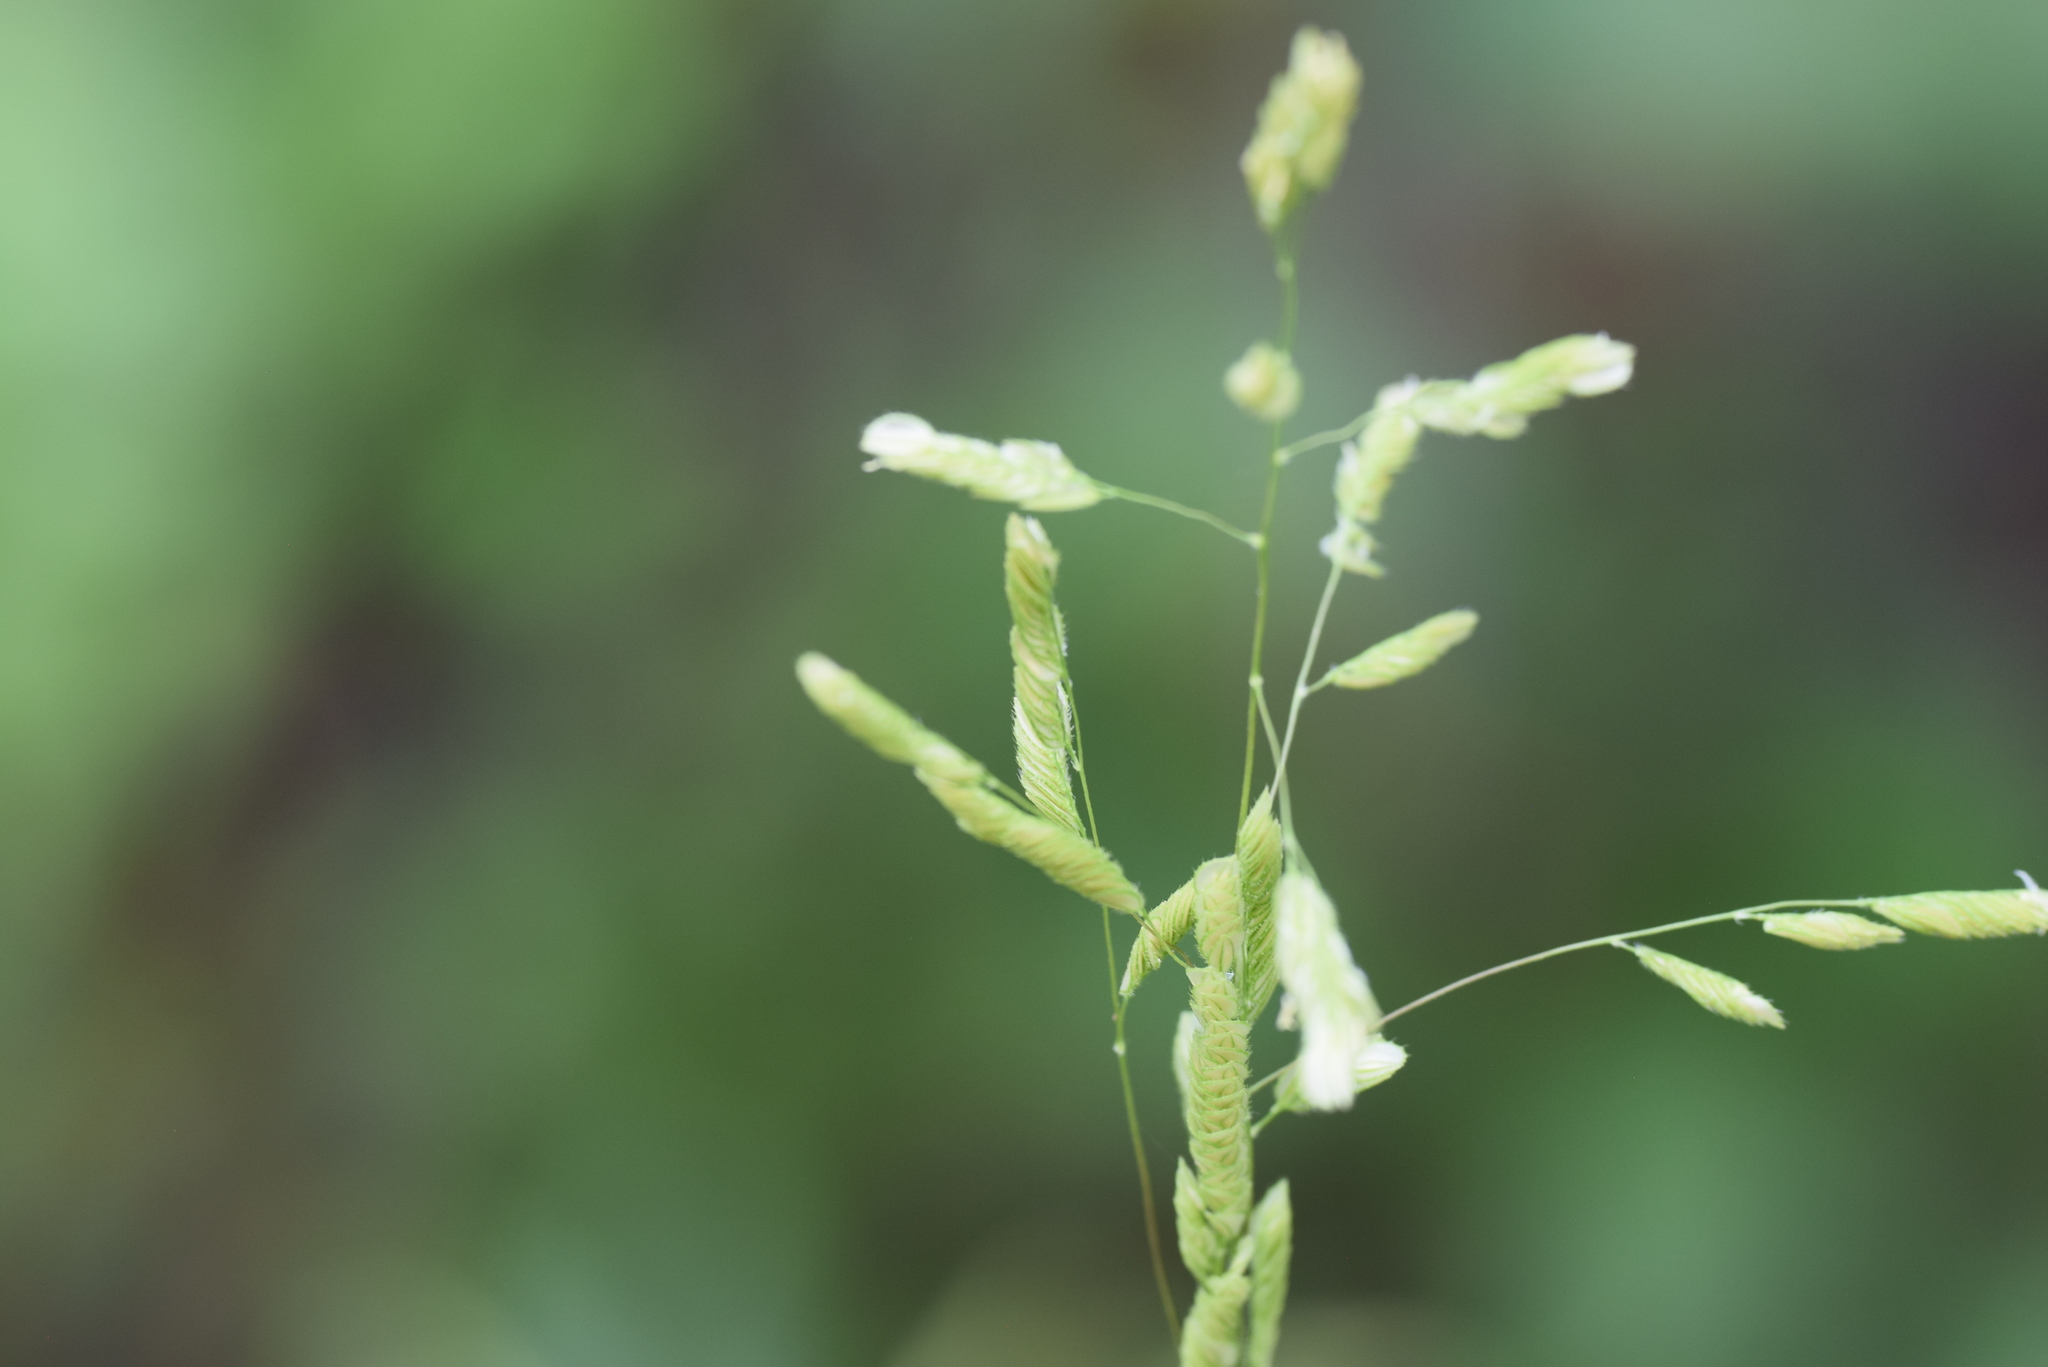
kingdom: Plantae
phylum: Tracheophyta
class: Liliopsida
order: Poales
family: Poaceae
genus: Leersia
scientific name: Leersia lenticularis
